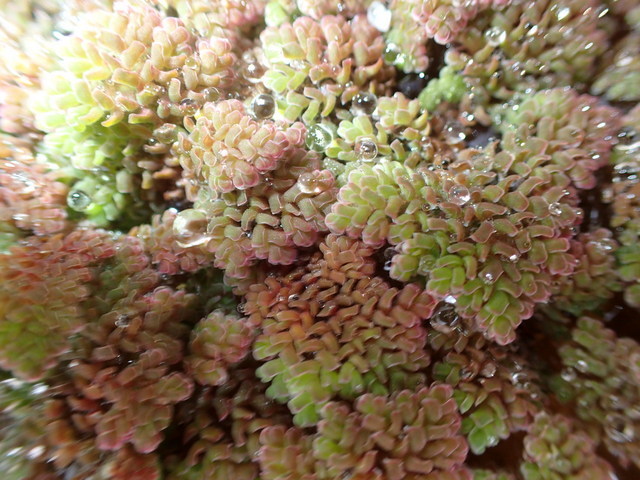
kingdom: Plantae
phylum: Tracheophyta
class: Polypodiopsida
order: Salviniales
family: Salviniaceae
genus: Azolla
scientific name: Azolla pinnata
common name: Ferny azolla
